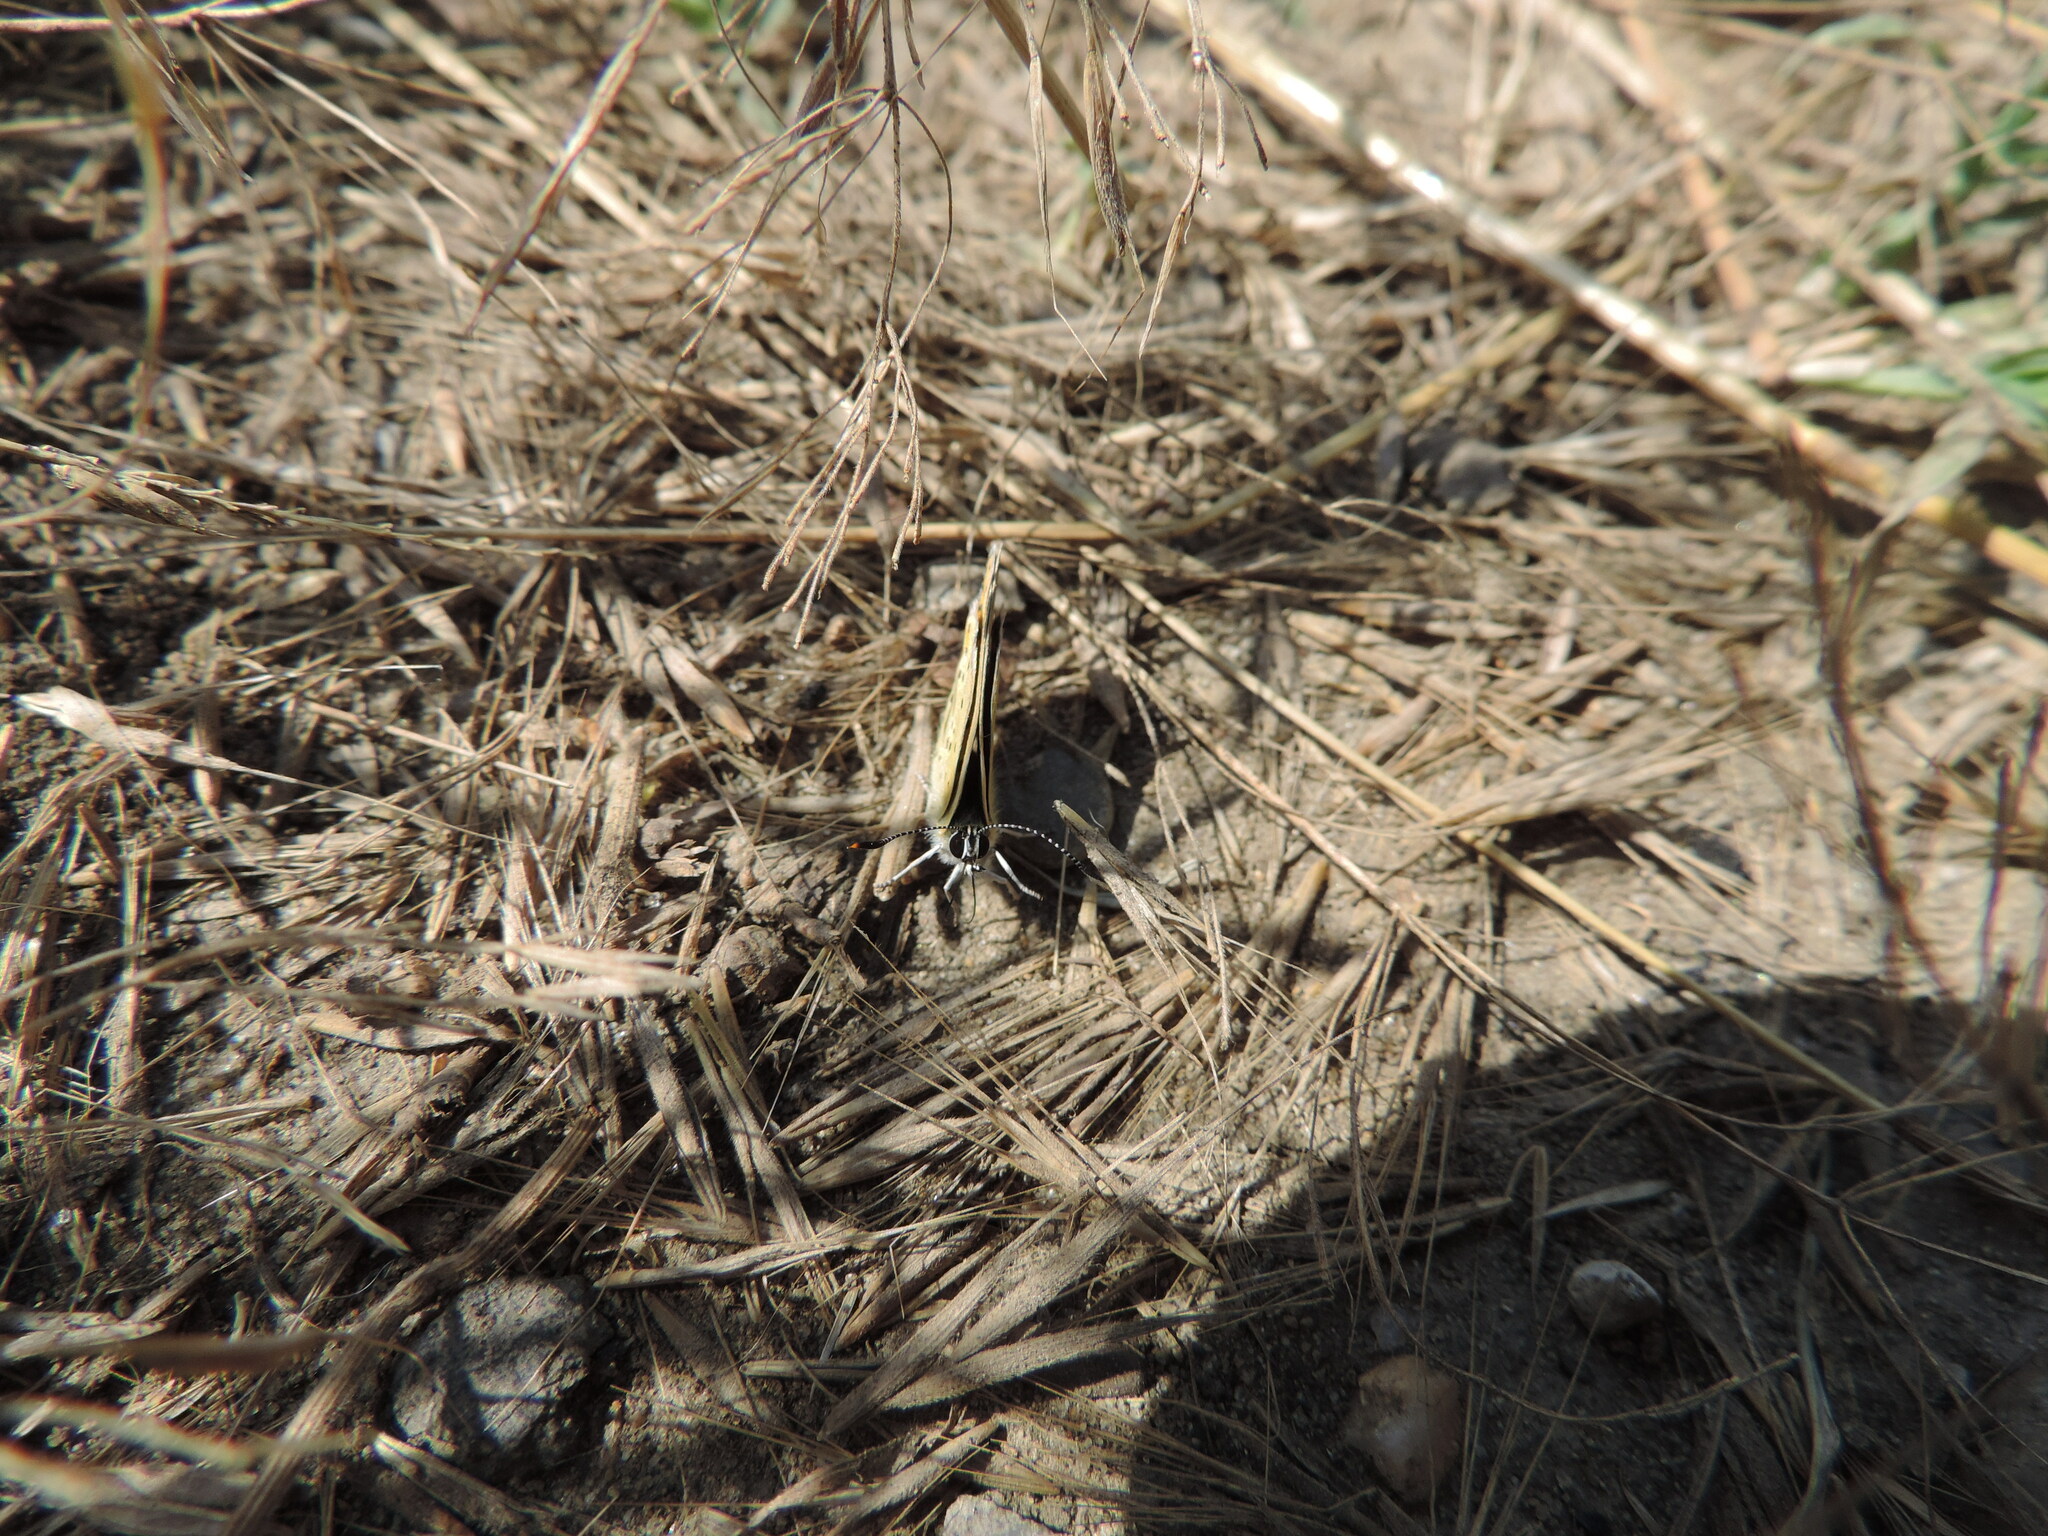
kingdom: Animalia
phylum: Arthropoda
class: Insecta
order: Lepidoptera
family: Lycaenidae
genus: Loweia
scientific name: Loweia tityrus
